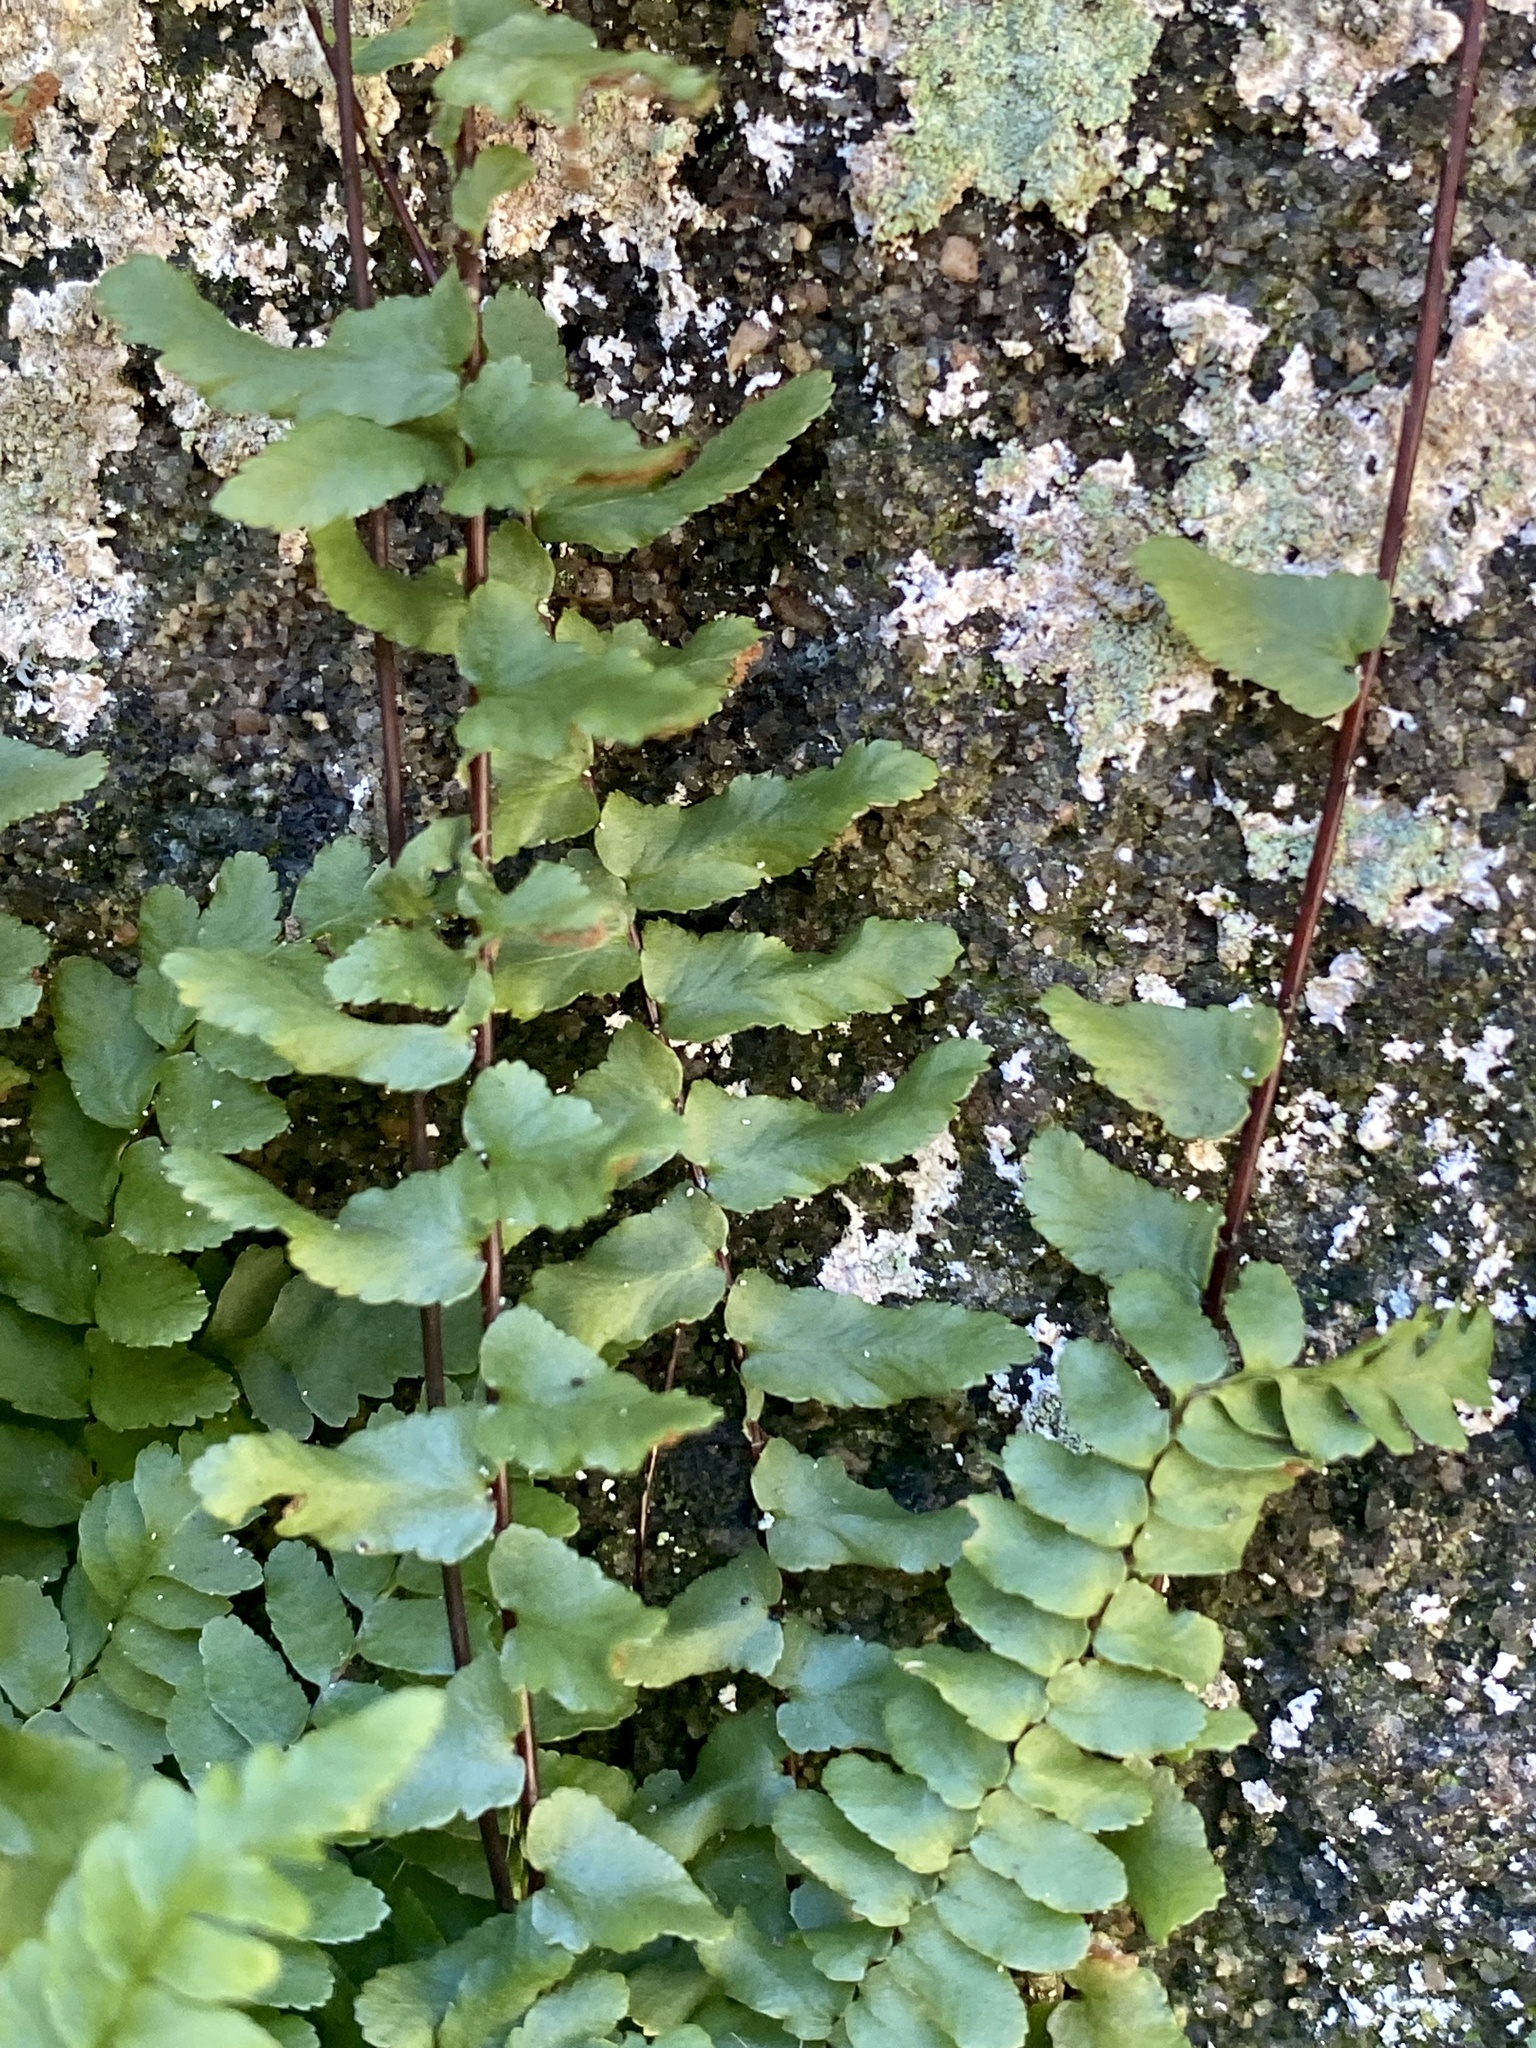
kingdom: Plantae
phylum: Tracheophyta
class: Polypodiopsida
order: Polypodiales
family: Aspleniaceae
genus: Asplenium
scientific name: Asplenium platyneuron
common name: Ebony spleenwort
